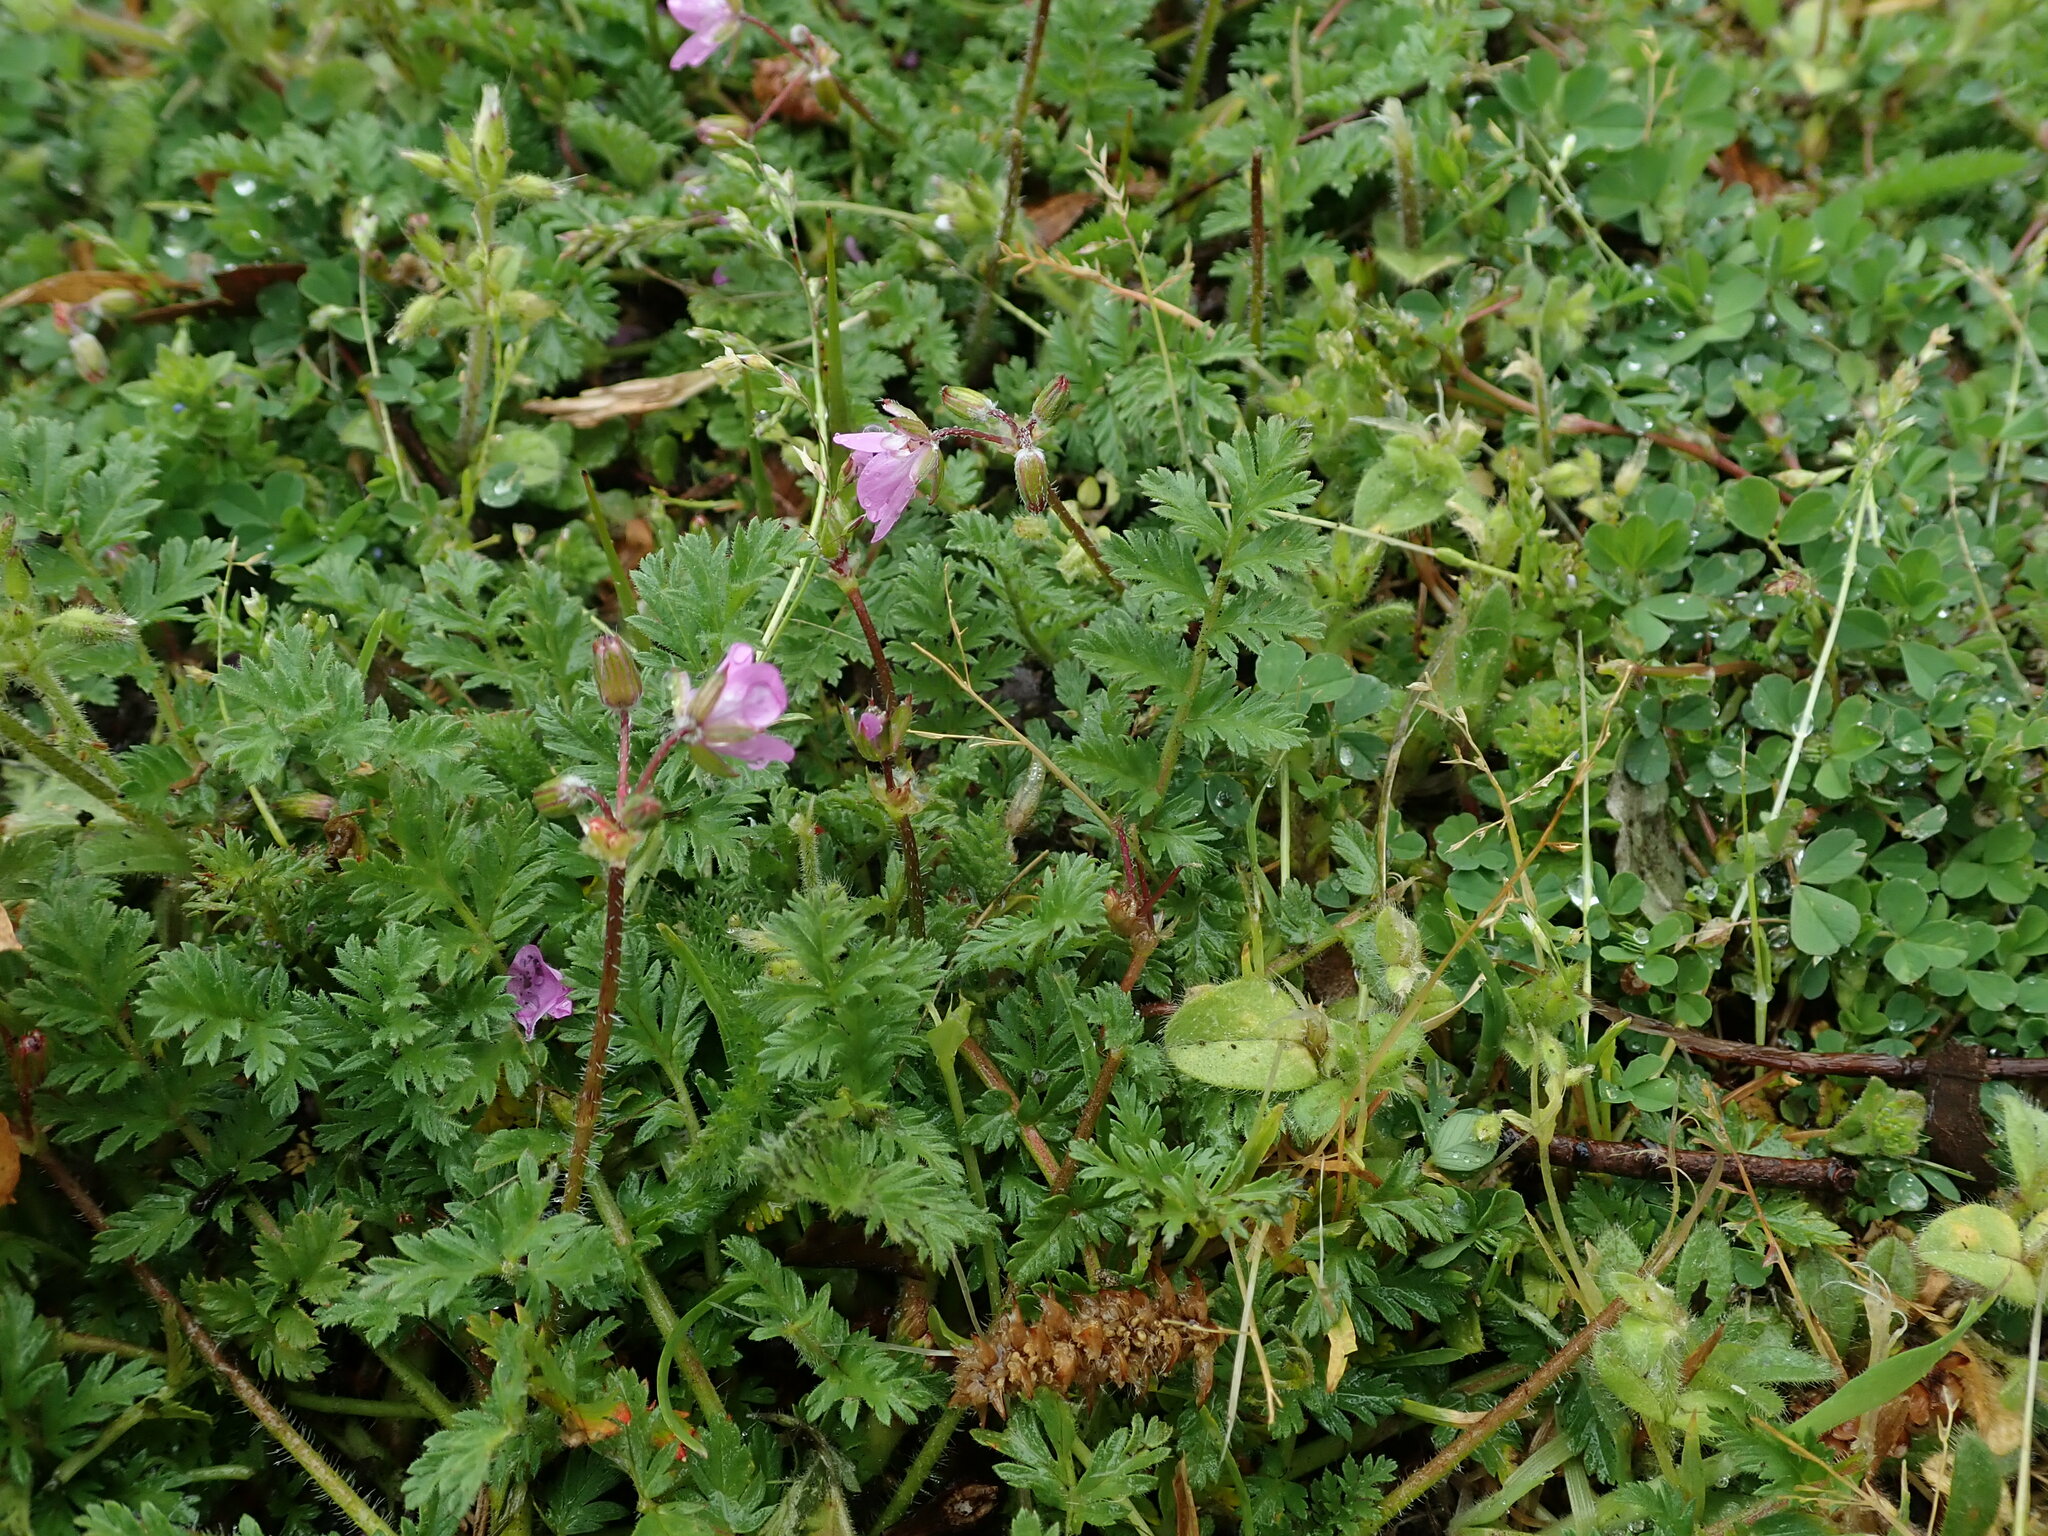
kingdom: Plantae
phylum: Tracheophyta
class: Magnoliopsida
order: Geraniales
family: Geraniaceae
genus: Erodium
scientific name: Erodium cicutarium
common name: Common stork's-bill
